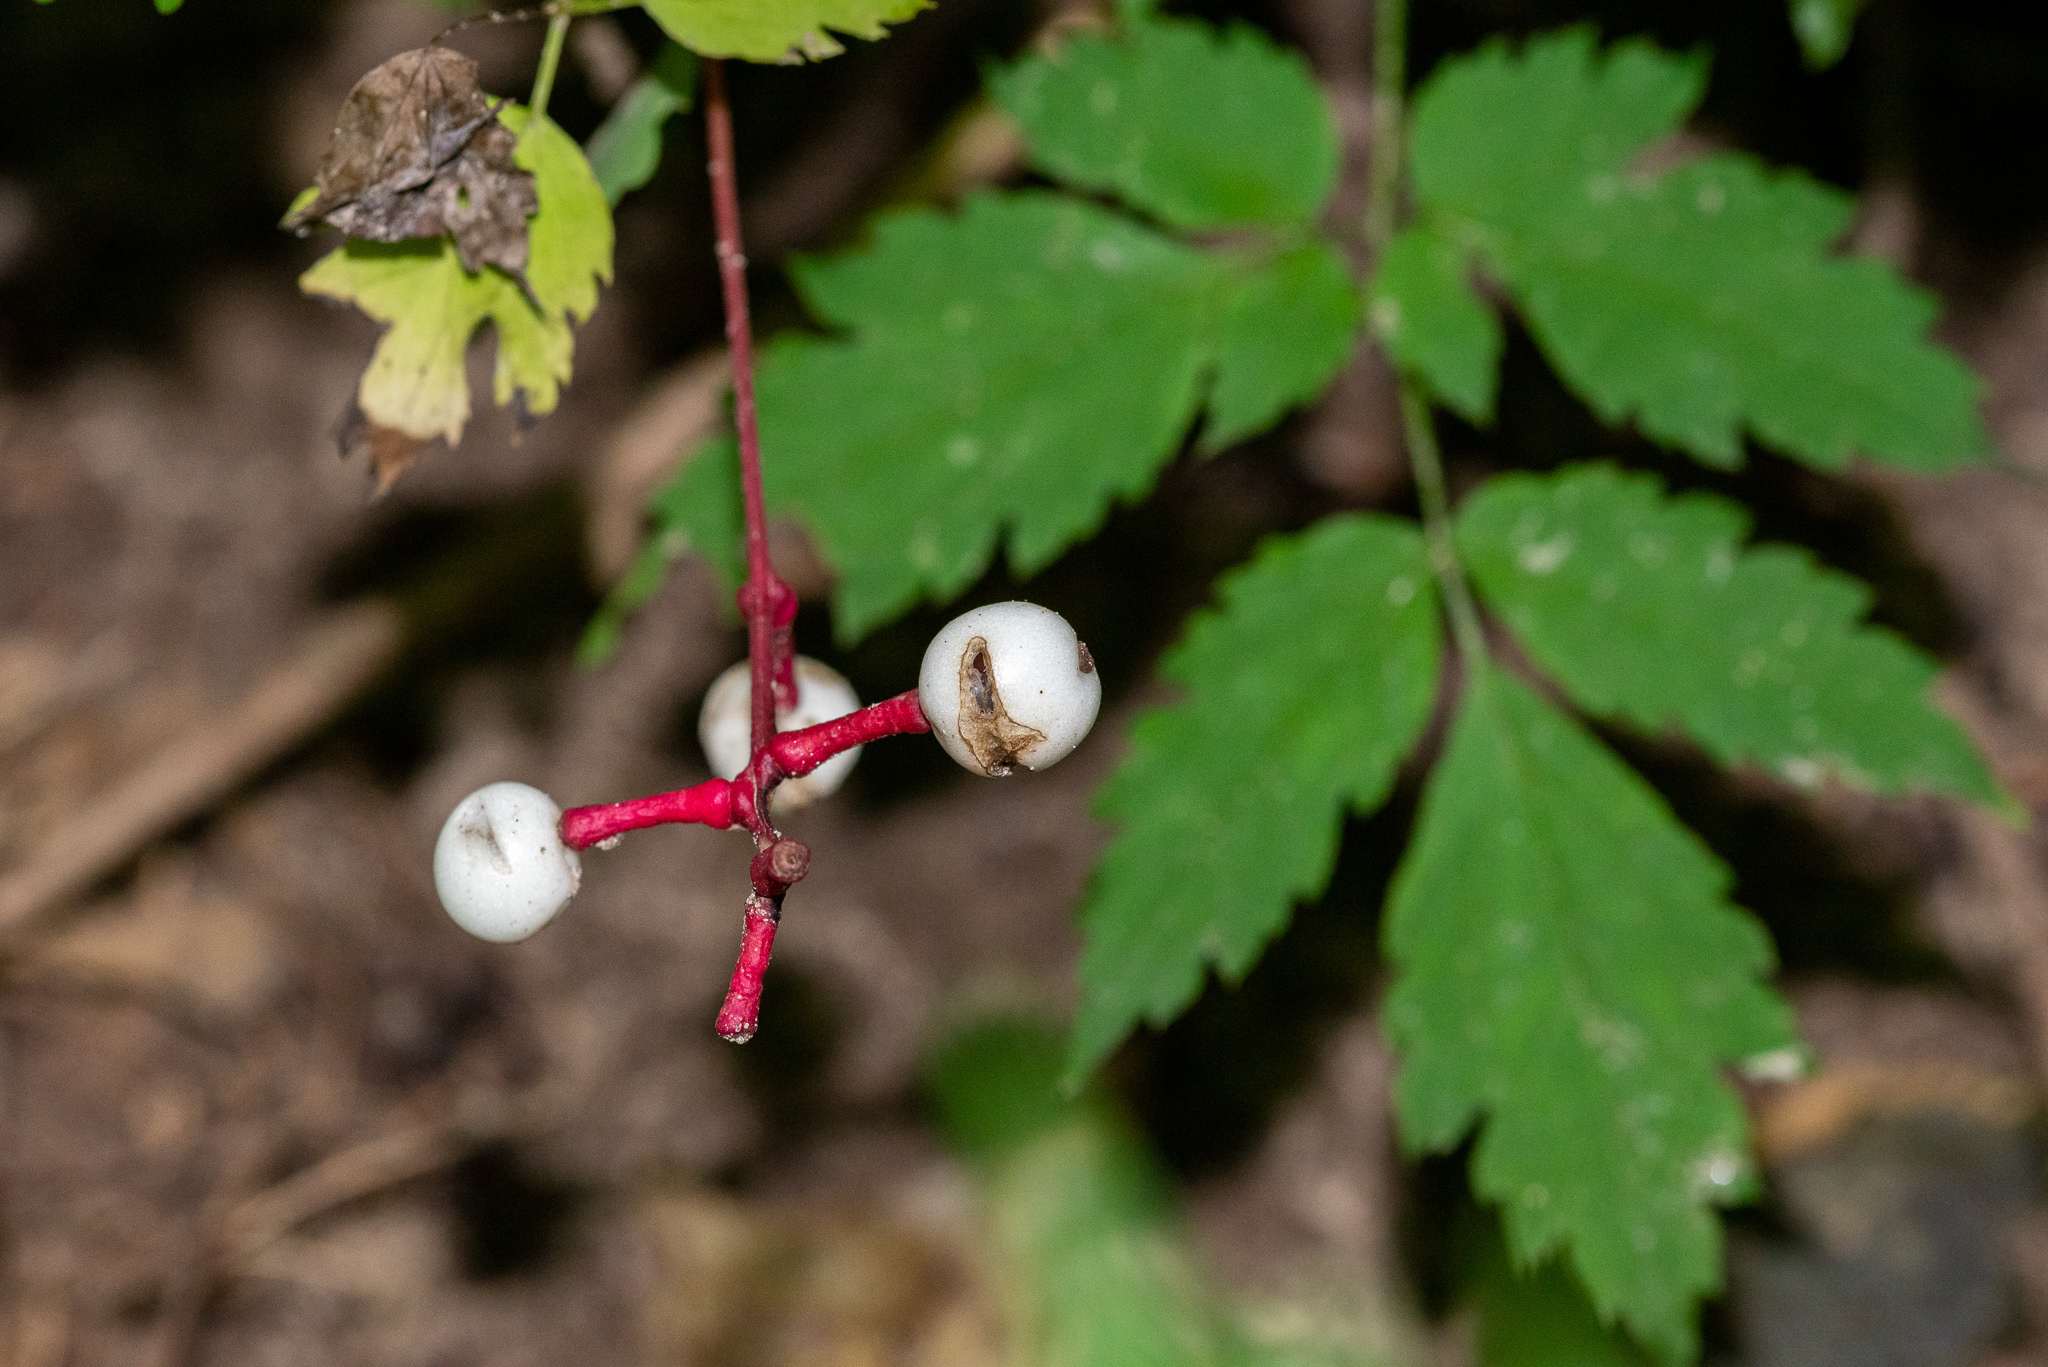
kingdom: Plantae
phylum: Tracheophyta
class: Magnoliopsida
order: Ranunculales
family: Ranunculaceae
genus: Actaea
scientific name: Actaea pachypoda
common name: Doll's-eyes
